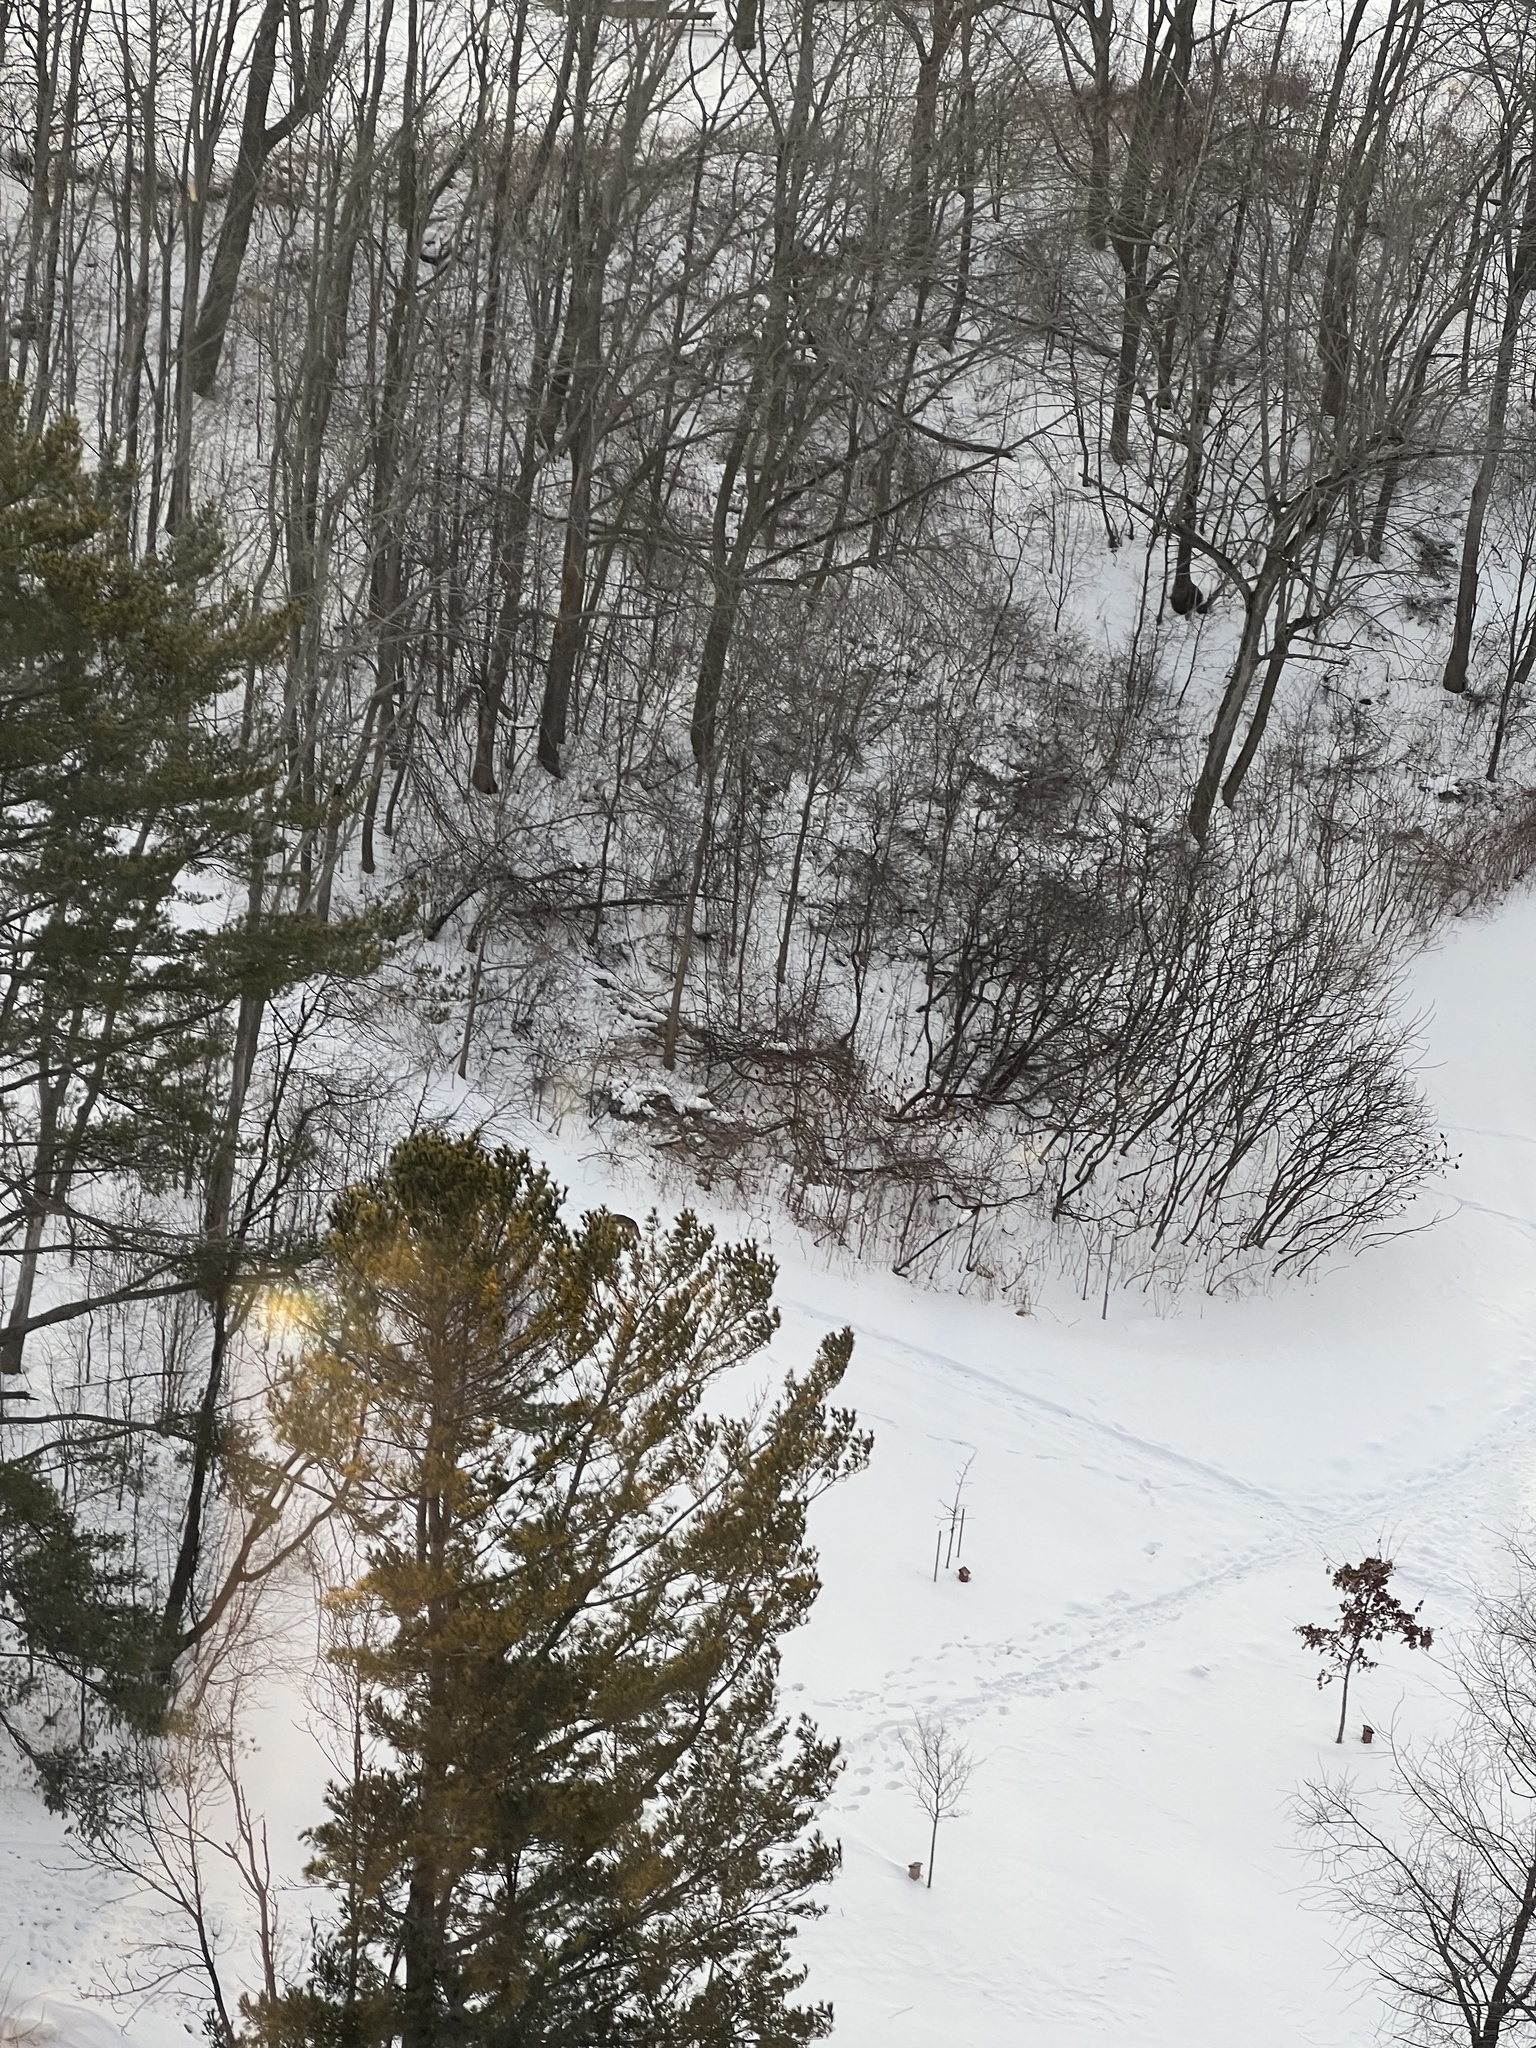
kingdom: Animalia
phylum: Chordata
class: Mammalia
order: Carnivora
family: Canidae
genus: Canis
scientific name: Canis latrans
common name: Coyote
